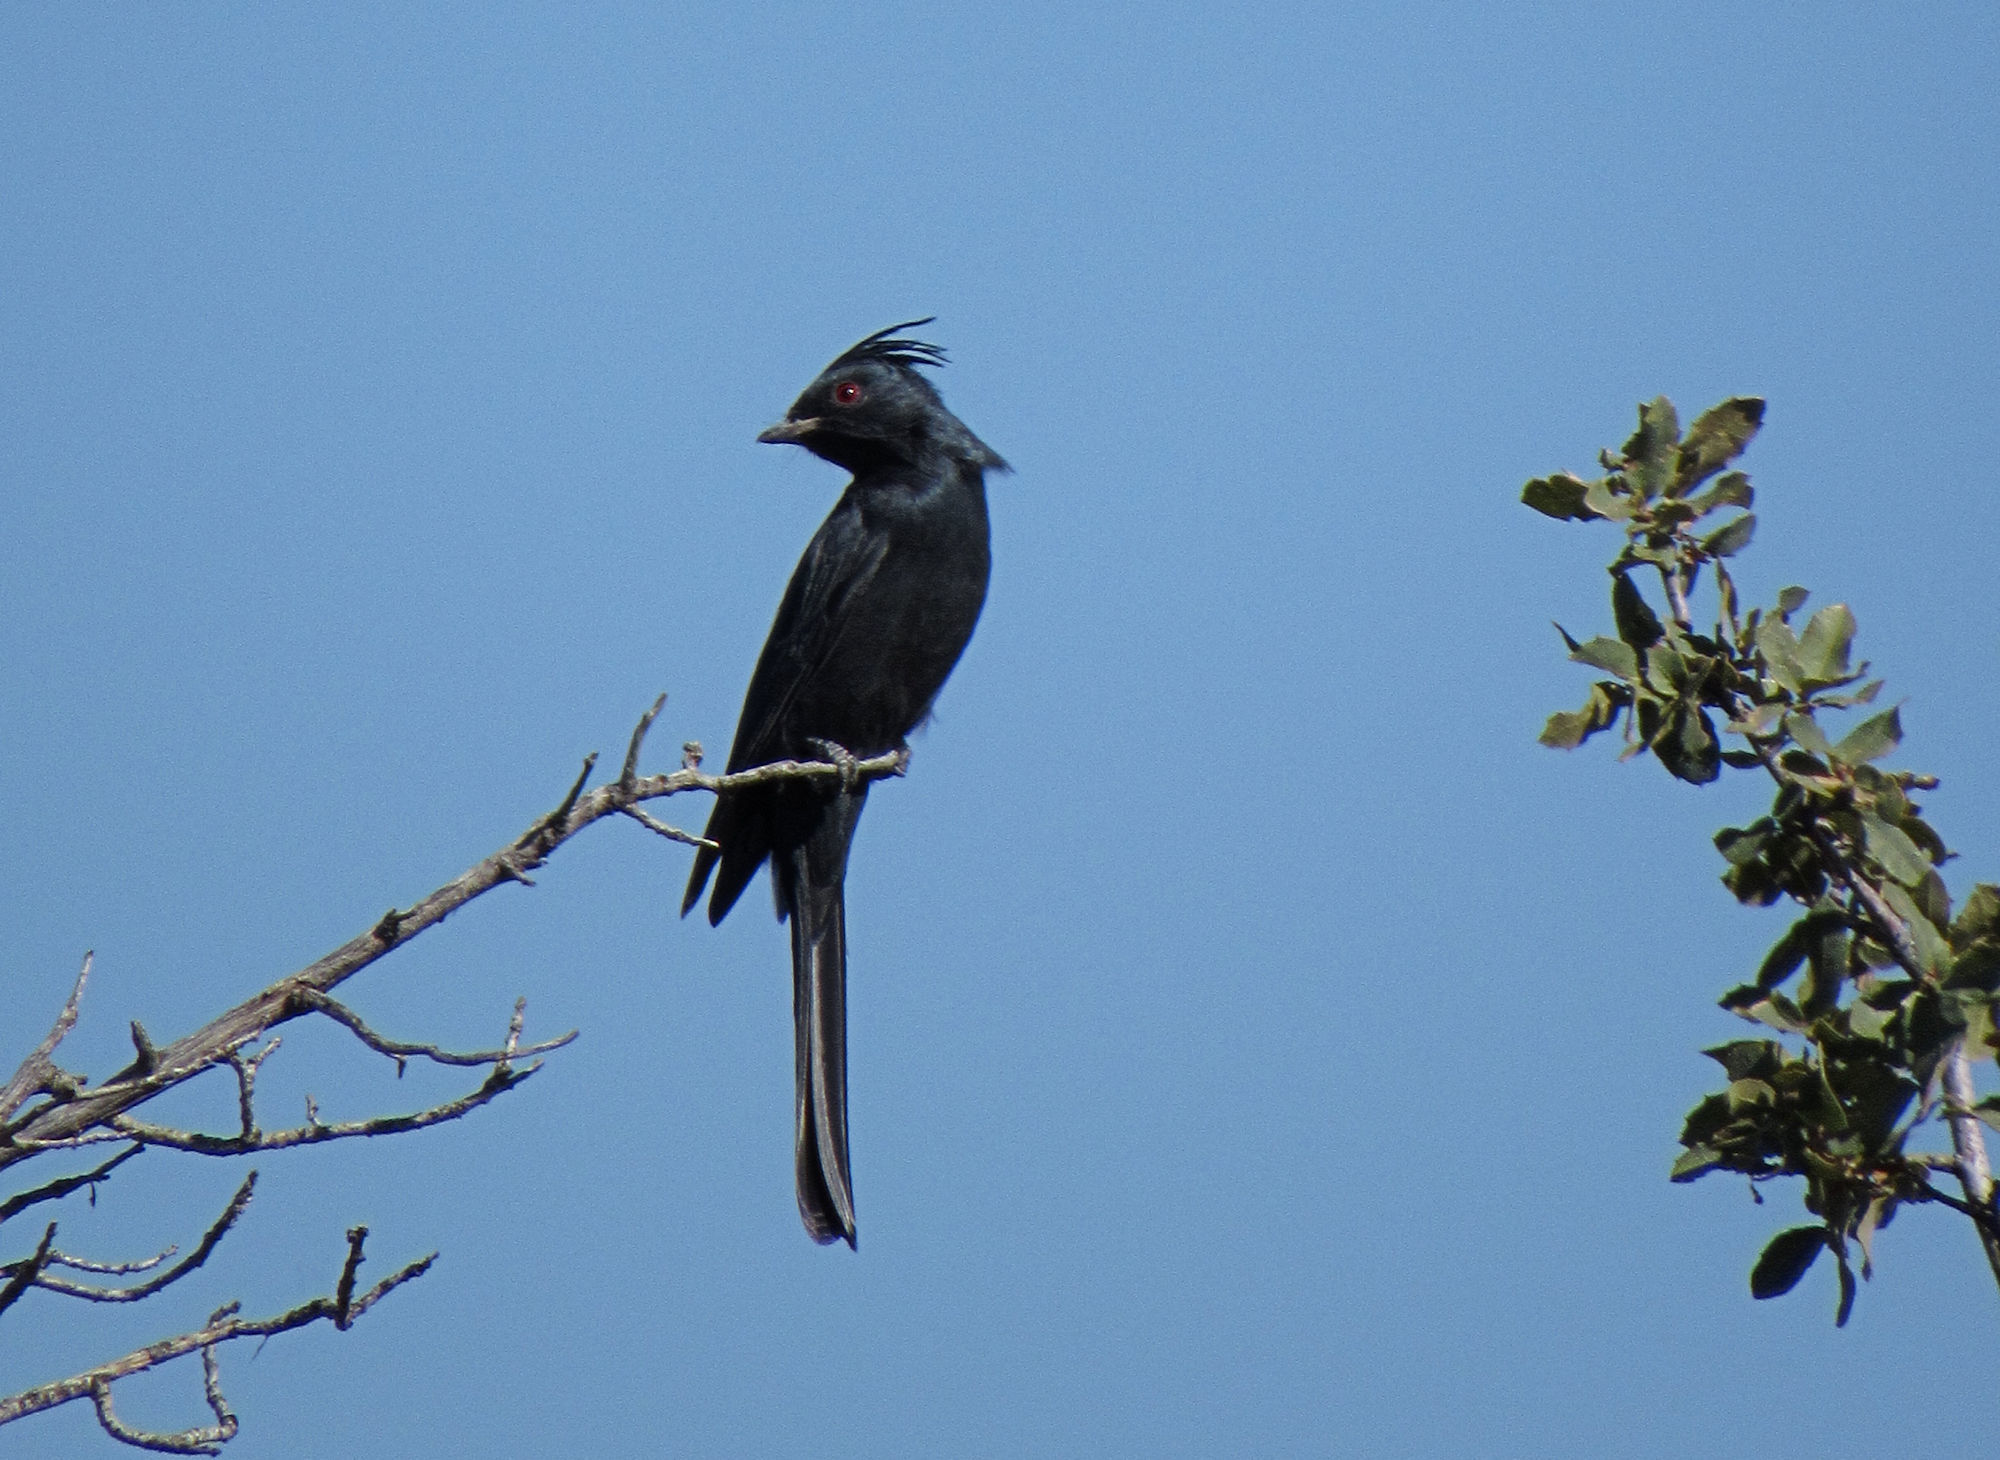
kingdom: Animalia
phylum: Chordata
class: Aves
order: Passeriformes
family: Ptilogonatidae
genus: Phainopepla
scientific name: Phainopepla nitens
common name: Phainopepla
